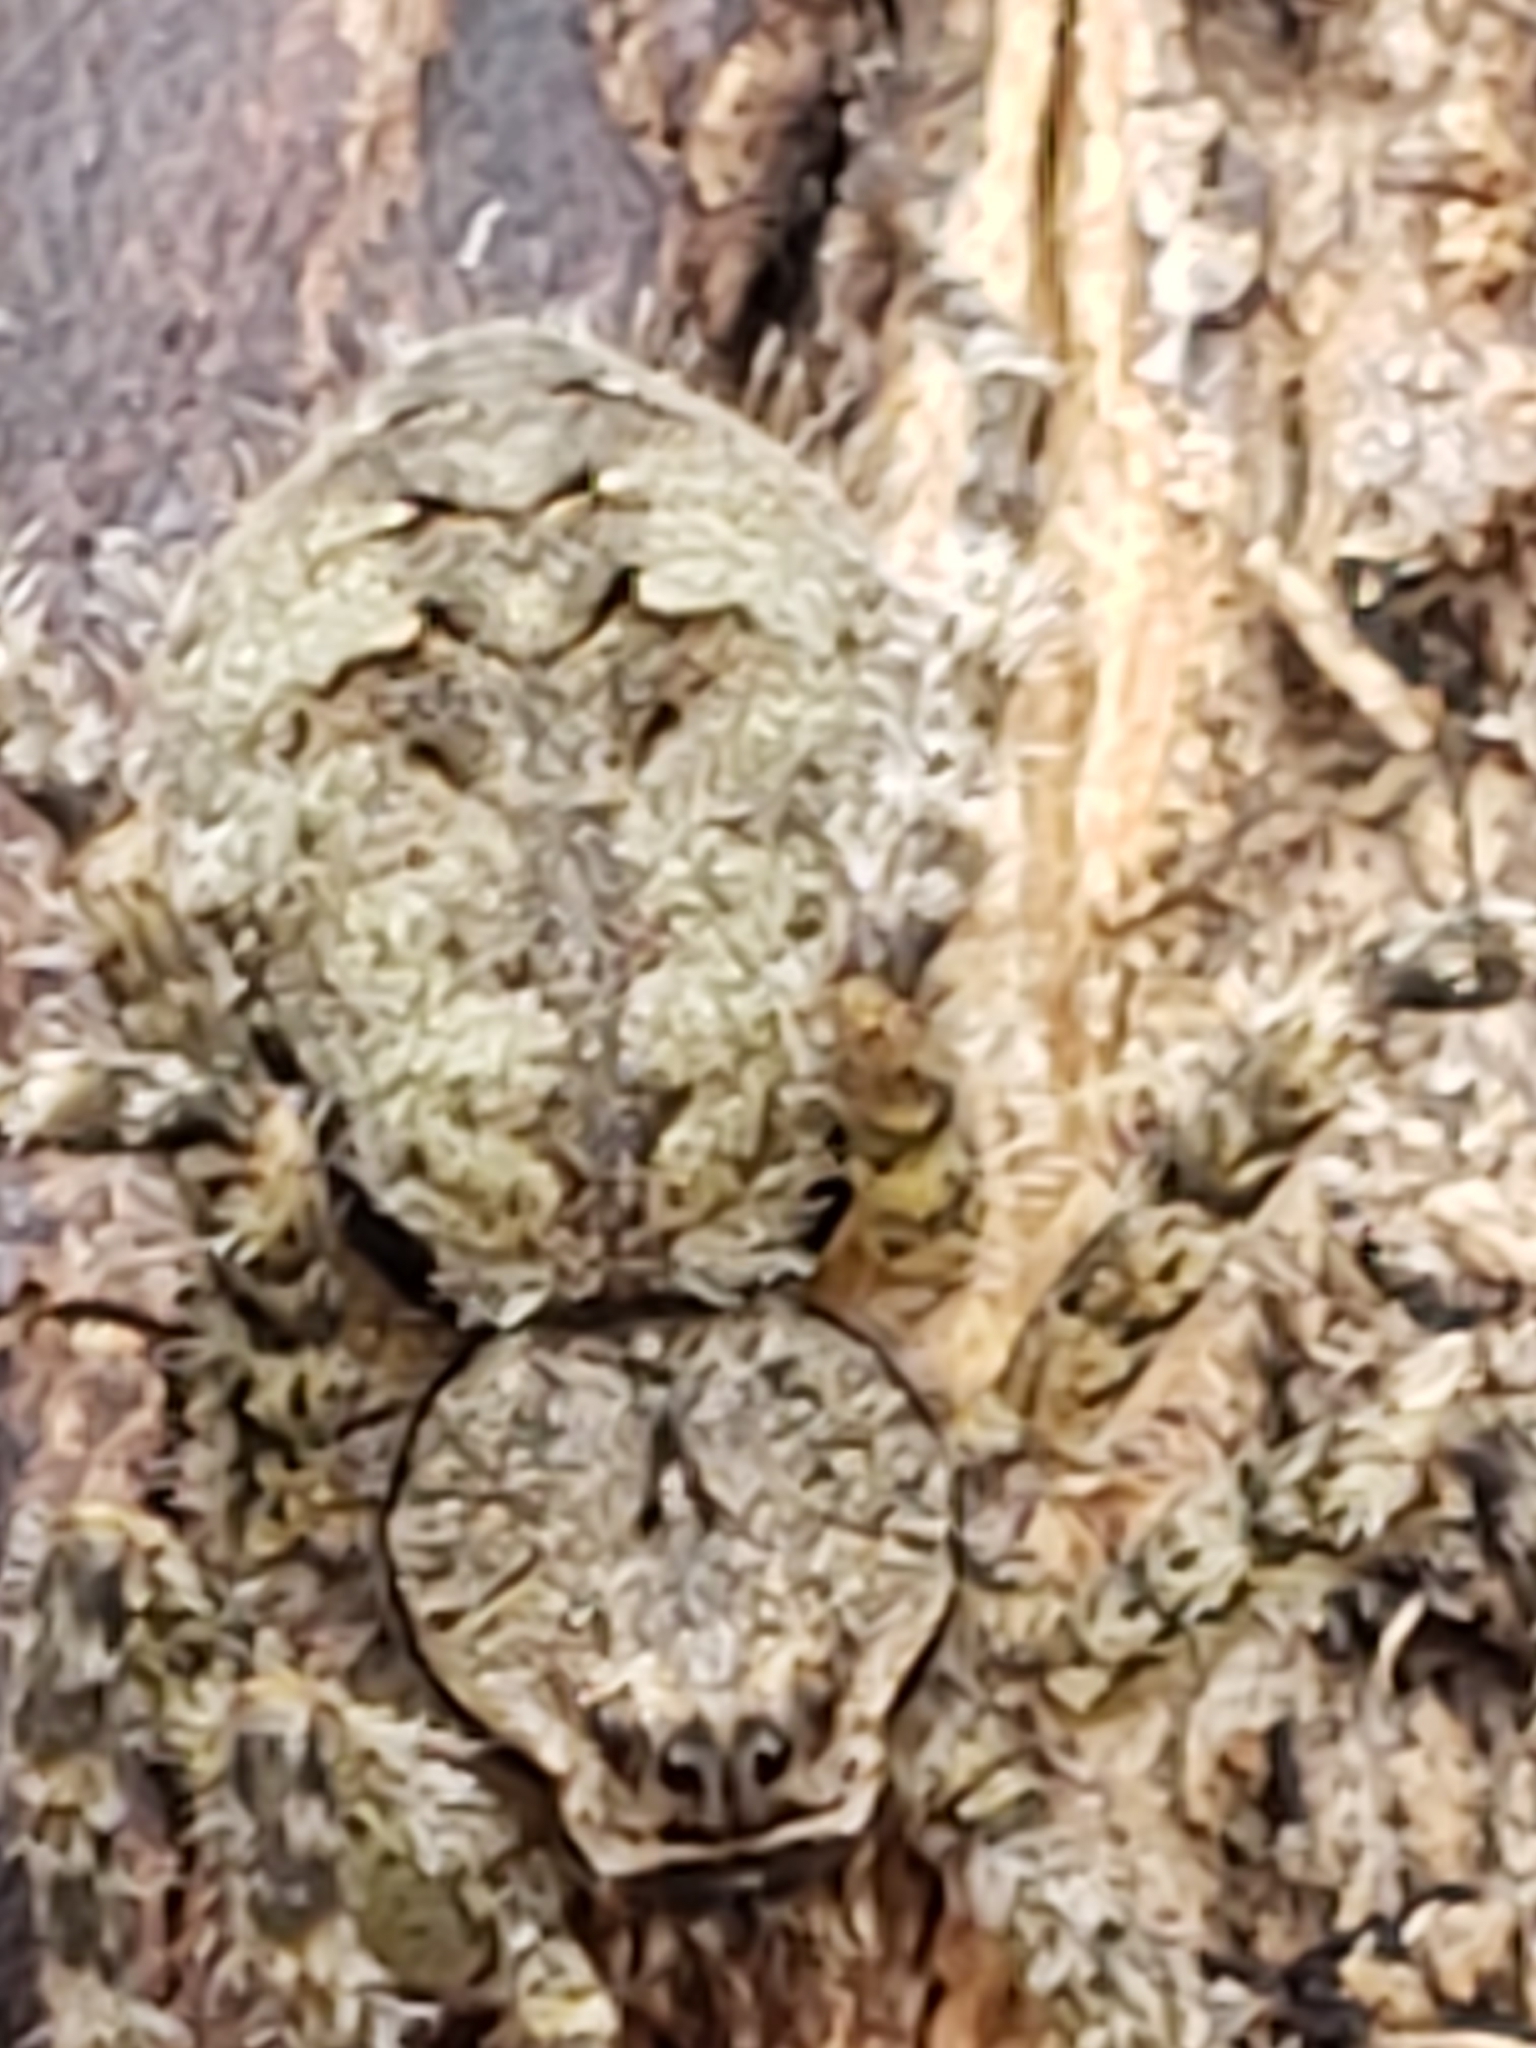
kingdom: Animalia
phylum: Arthropoda
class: Arachnida
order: Araneae
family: Pisauridae
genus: Dolomedes
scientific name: Dolomedes albineus
